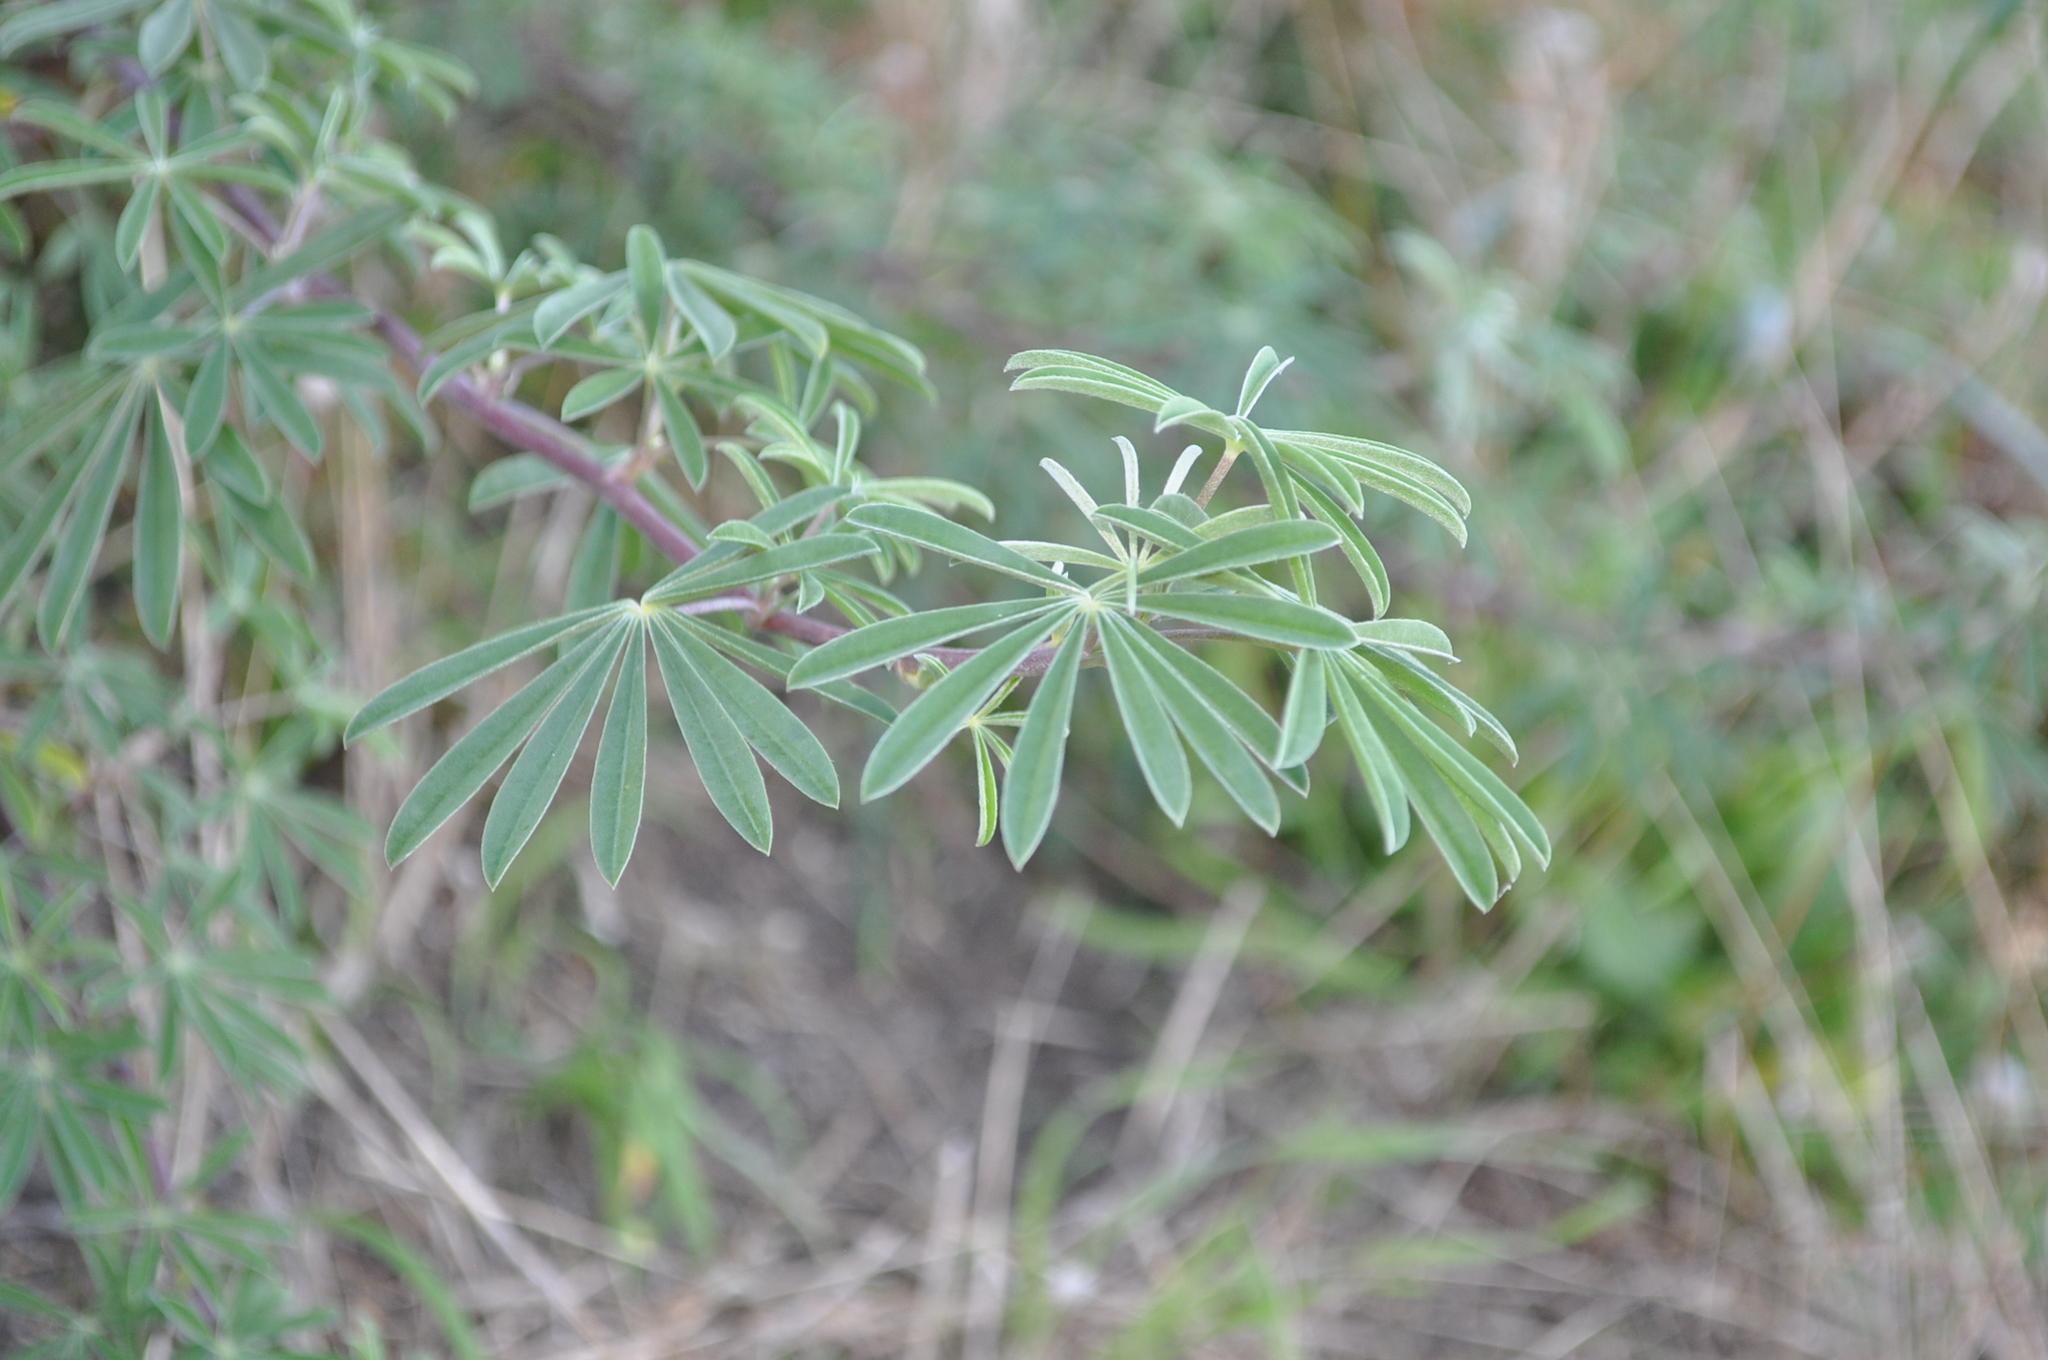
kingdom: Plantae
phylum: Tracheophyta
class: Magnoliopsida
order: Fabales
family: Fabaceae
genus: Lupinus
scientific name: Lupinus arboreus
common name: Yellow bush lupine
